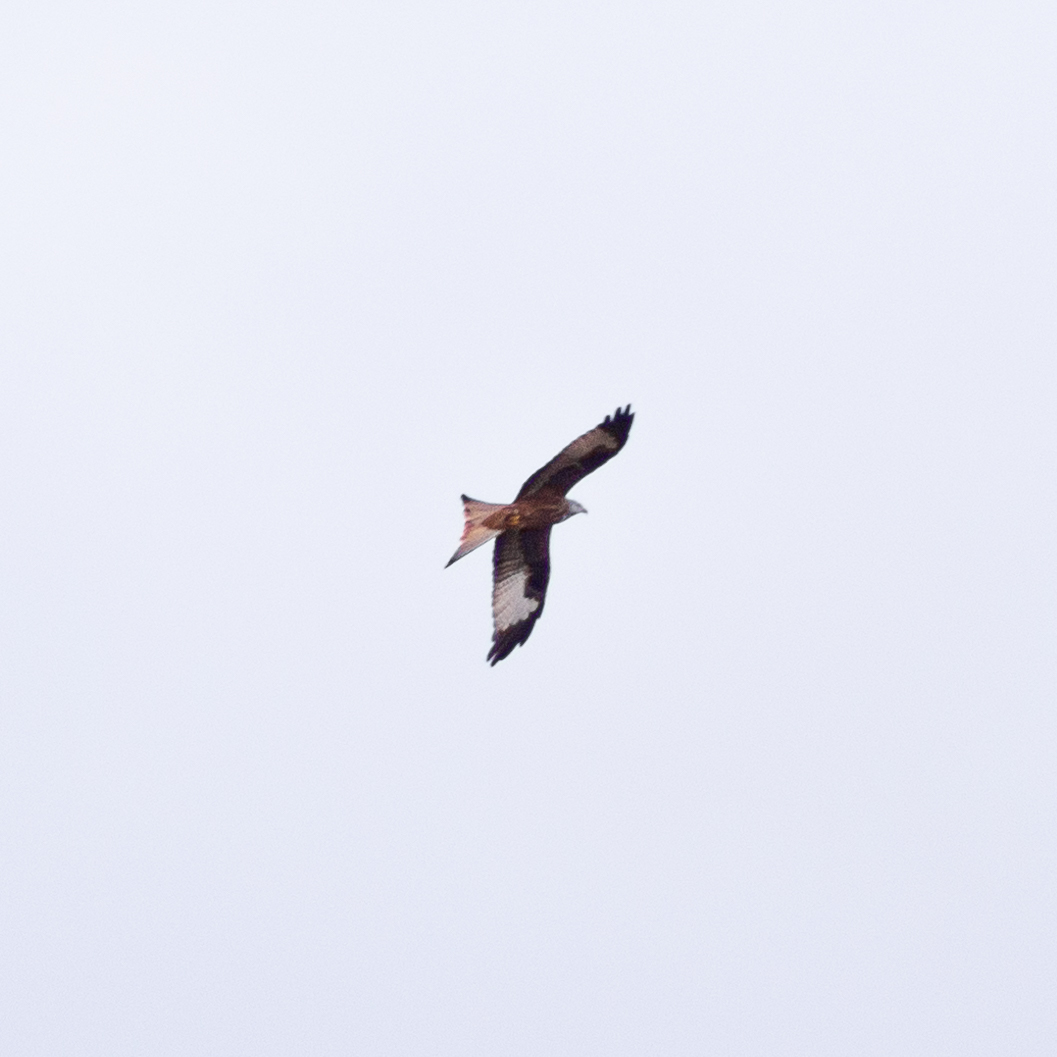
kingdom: Animalia
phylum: Chordata
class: Aves
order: Accipitriformes
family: Accipitridae
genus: Milvus
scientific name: Milvus milvus
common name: Red kite
